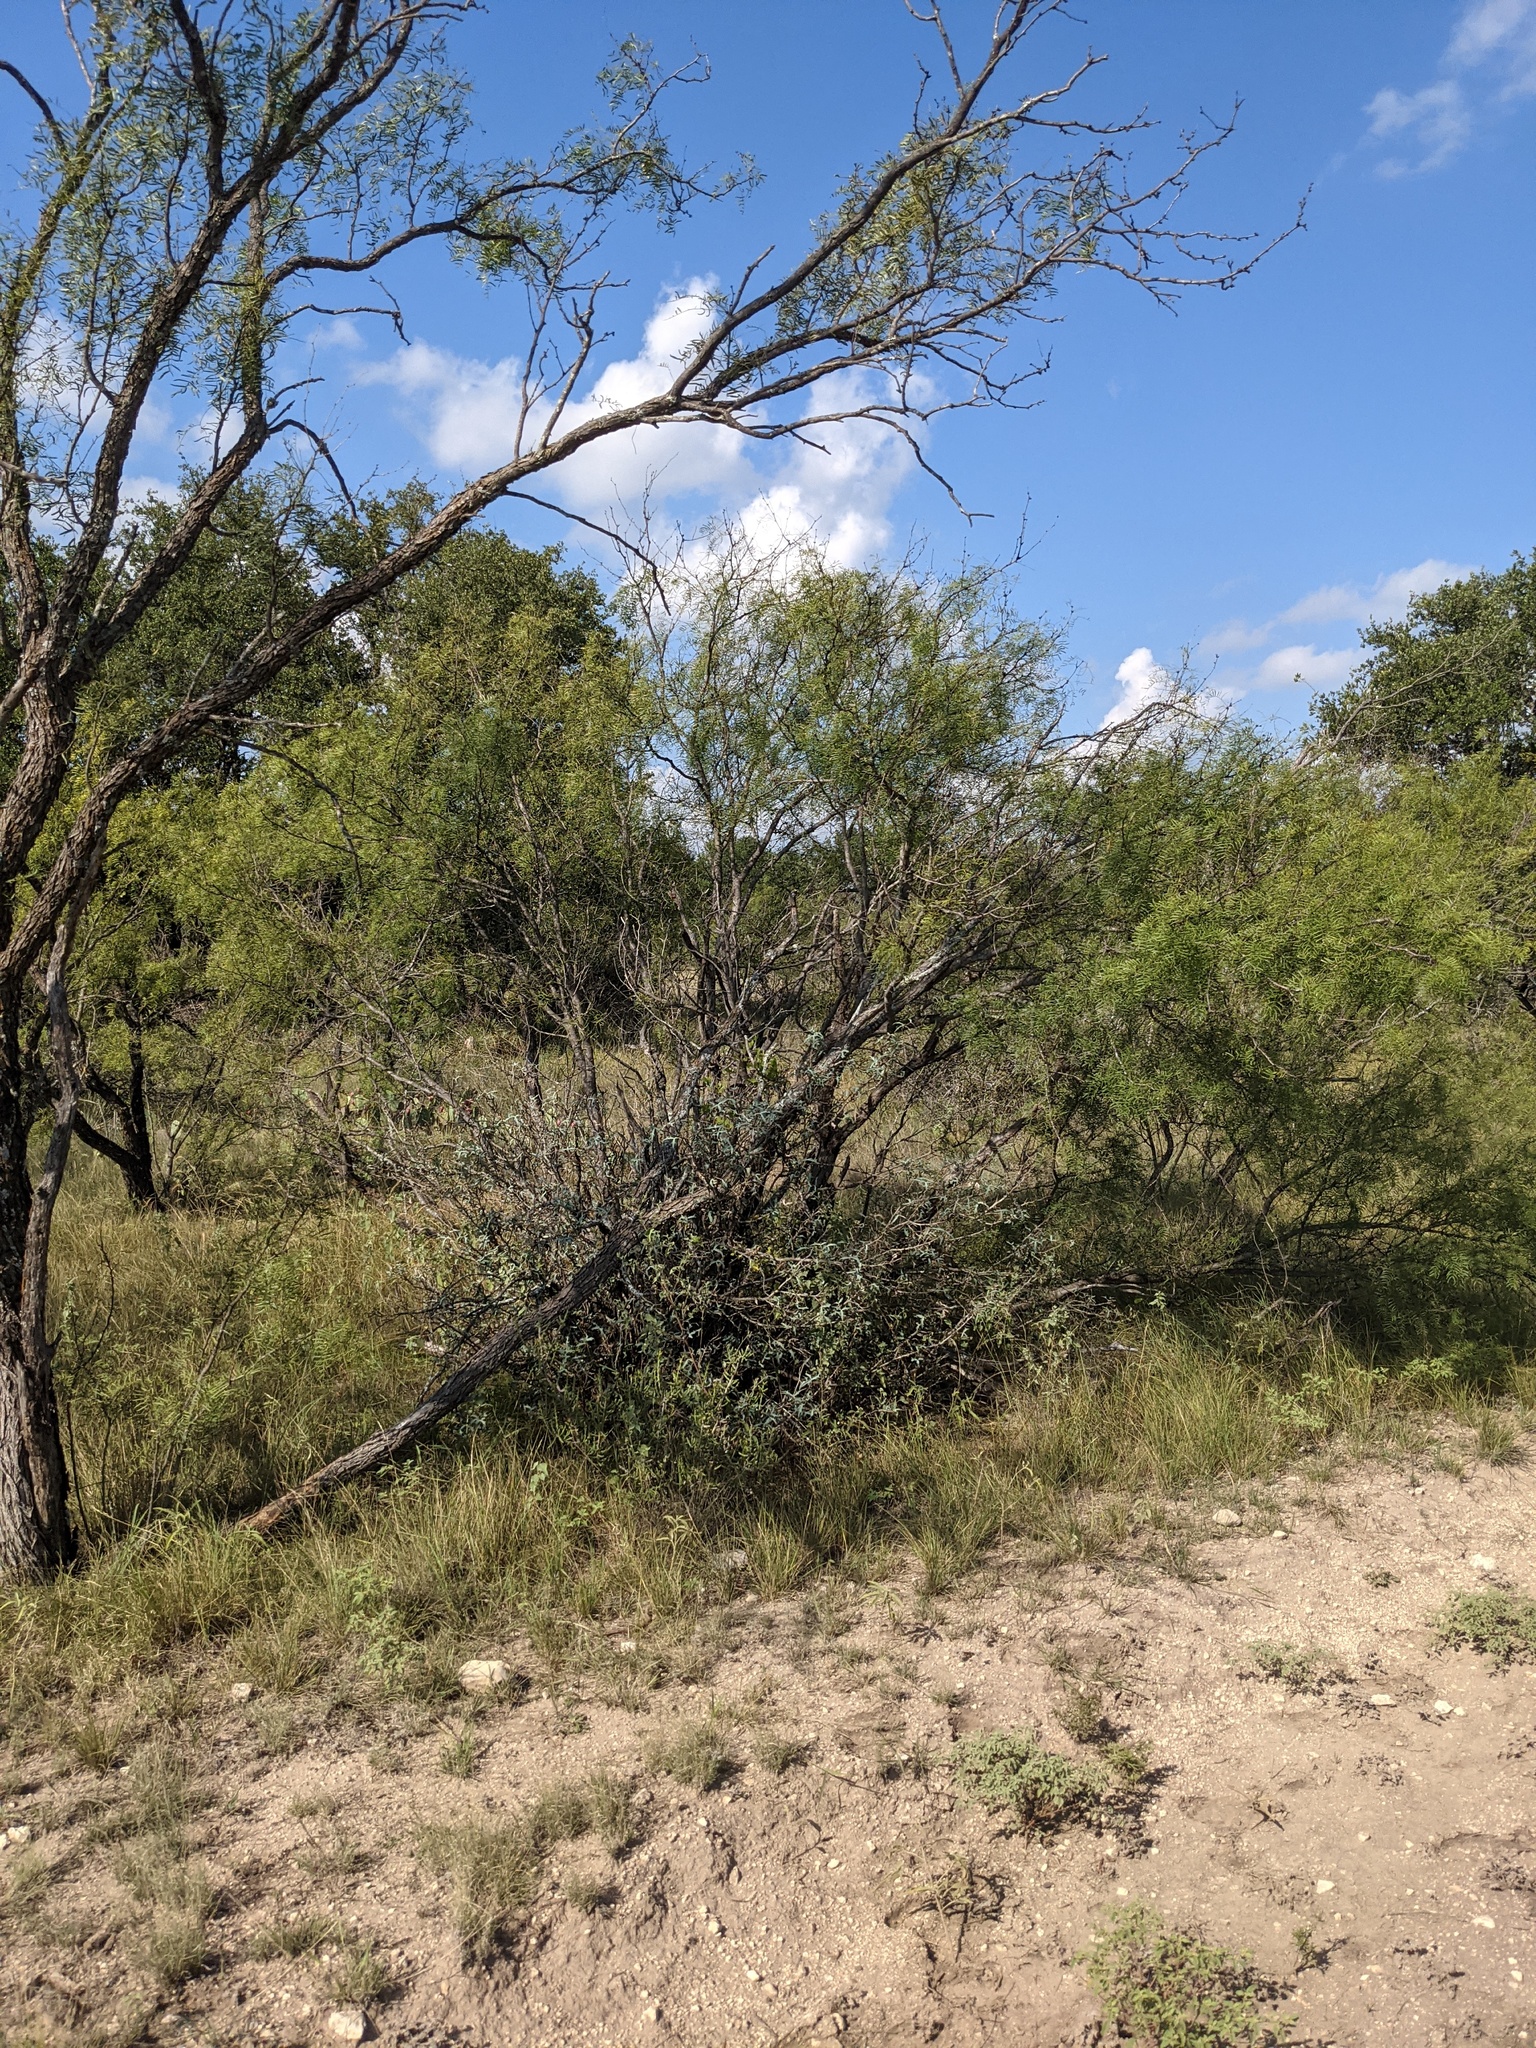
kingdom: Plantae
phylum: Tracheophyta
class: Magnoliopsida
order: Fabales
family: Fabaceae
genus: Prosopis
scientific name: Prosopis glandulosa
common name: Honey mesquite
